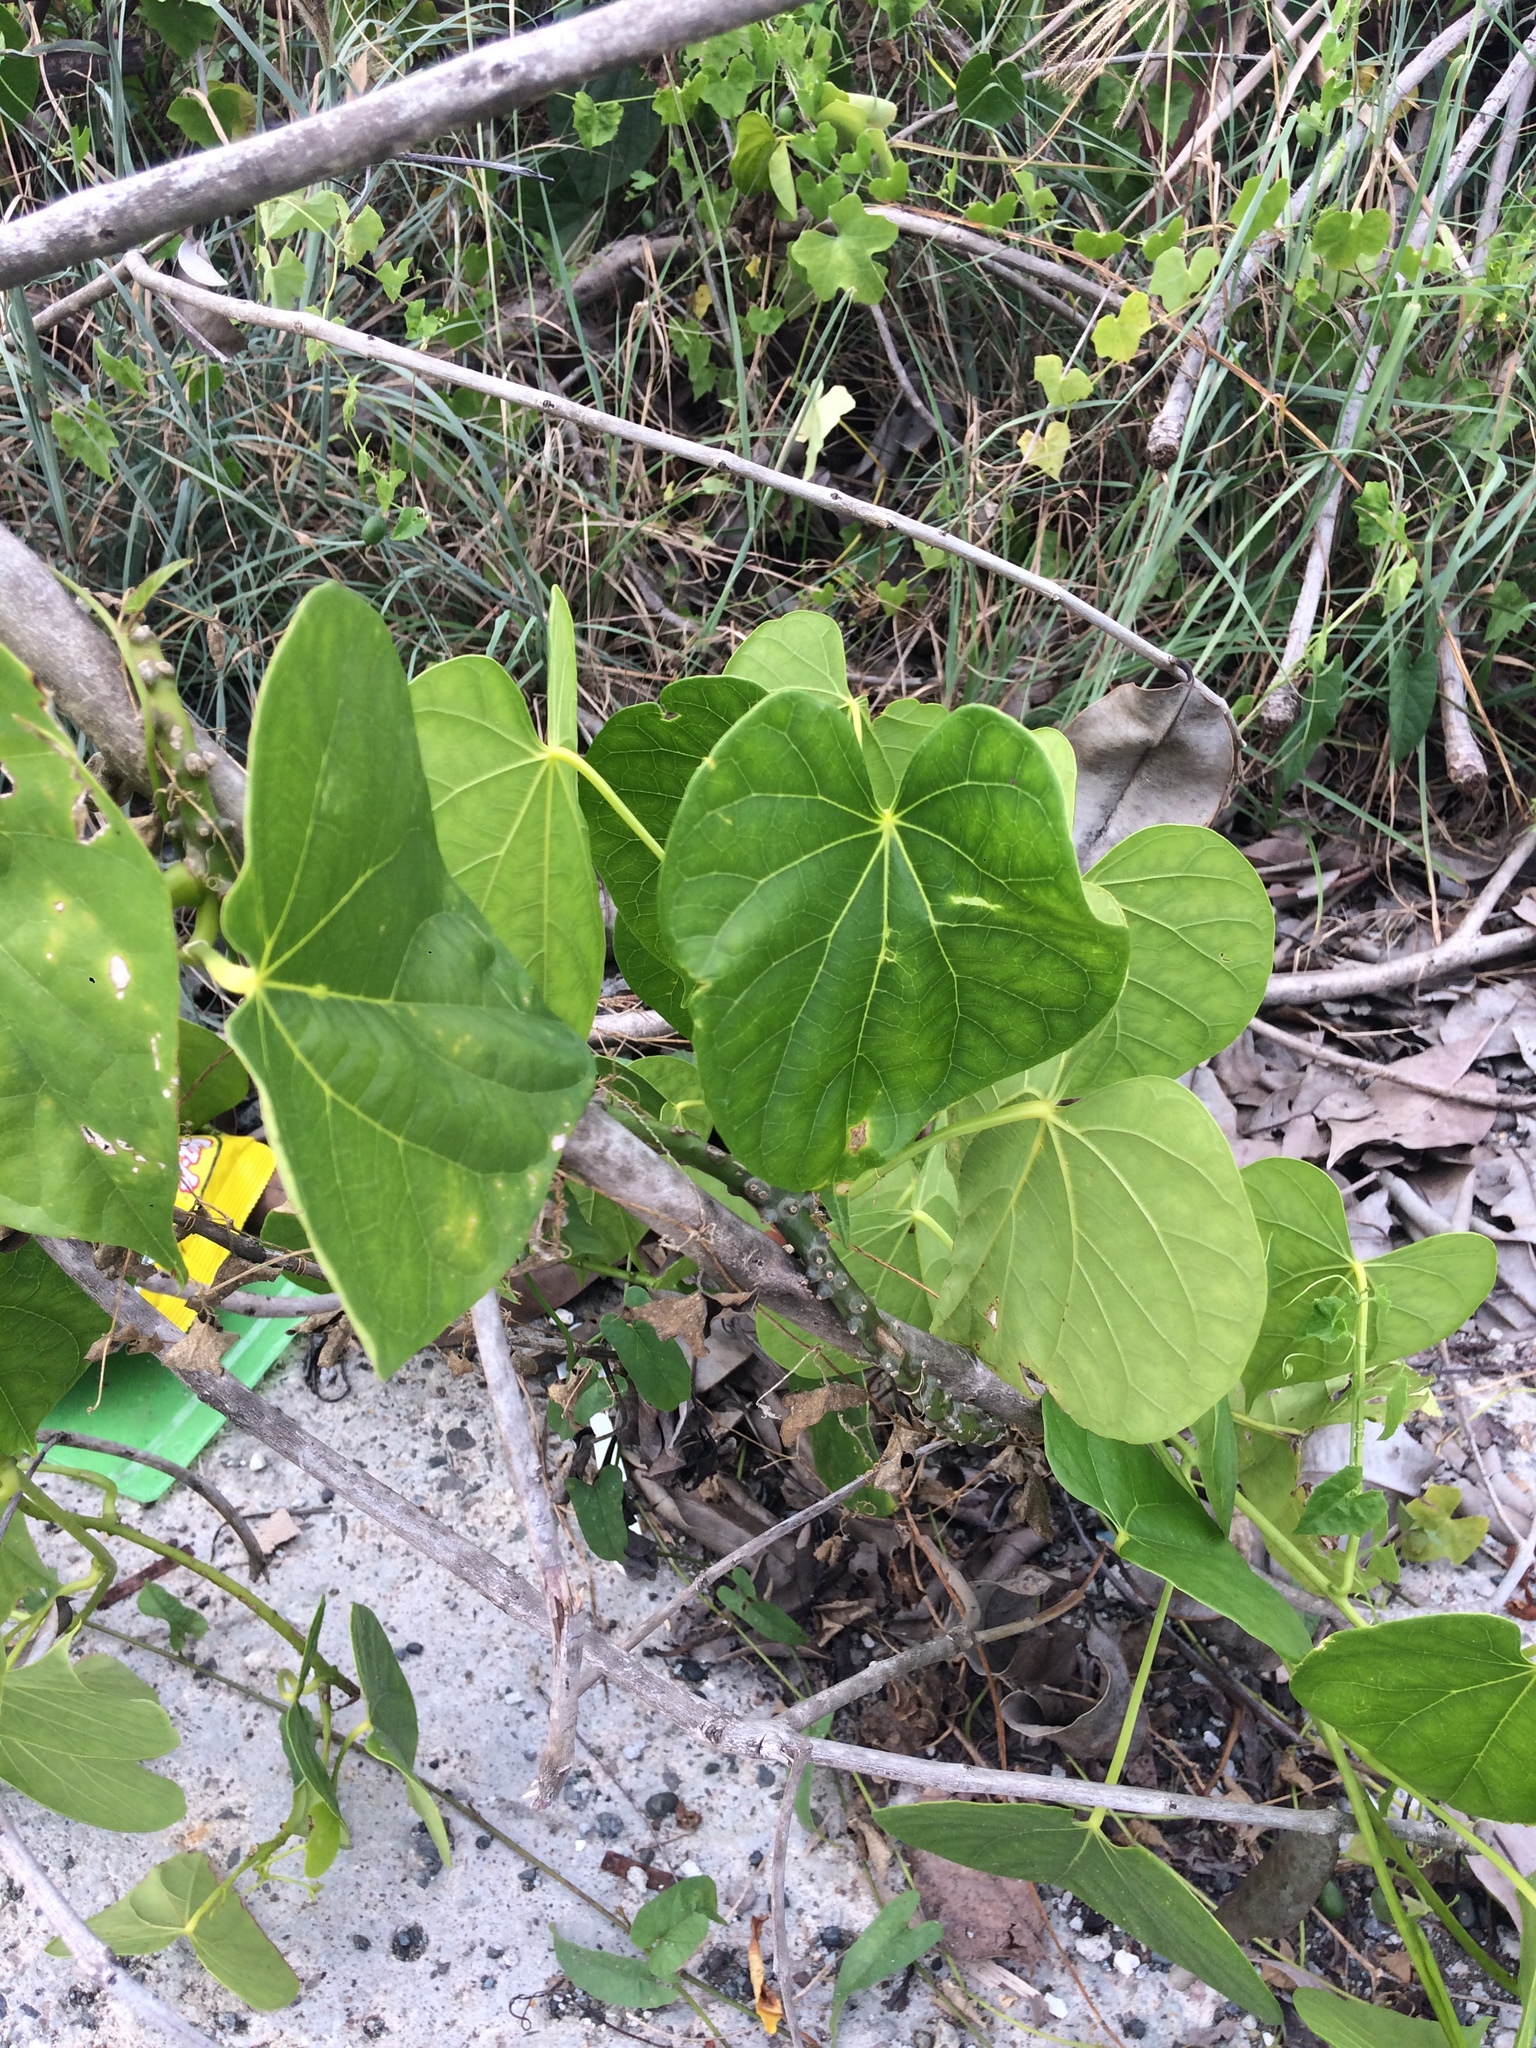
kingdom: Plantae
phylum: Tracheophyta
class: Magnoliopsida
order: Ranunculales
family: Menispermaceae
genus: Tinospora
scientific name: Tinospora crispa
